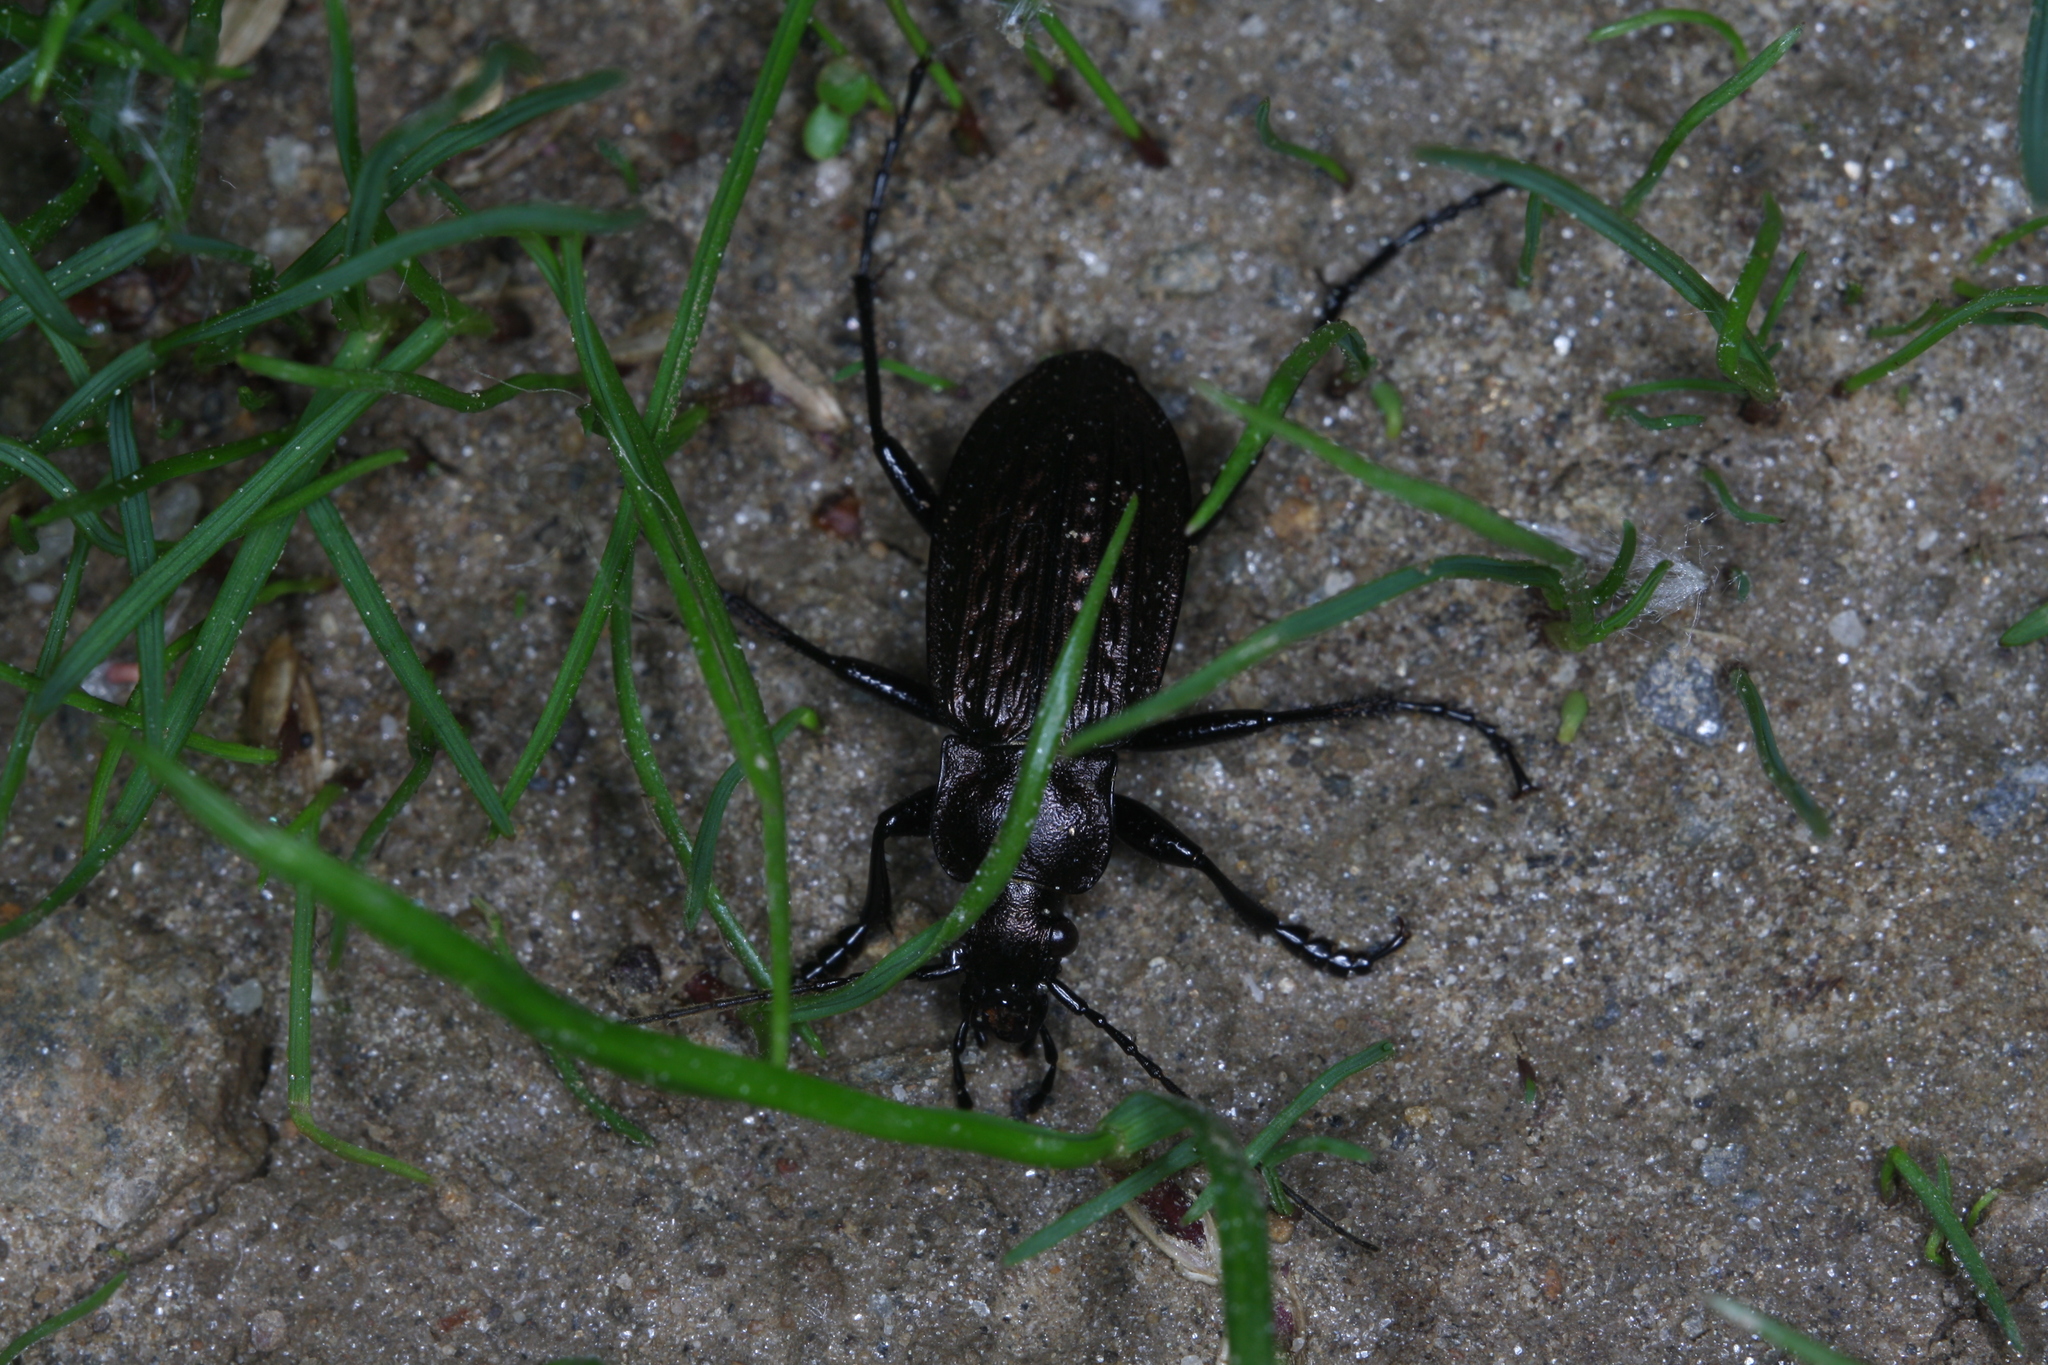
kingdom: Animalia
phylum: Arthropoda
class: Insecta
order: Coleoptera
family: Carabidae
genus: Carabus
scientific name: Carabus granulatus
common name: Granulate ground beetle
